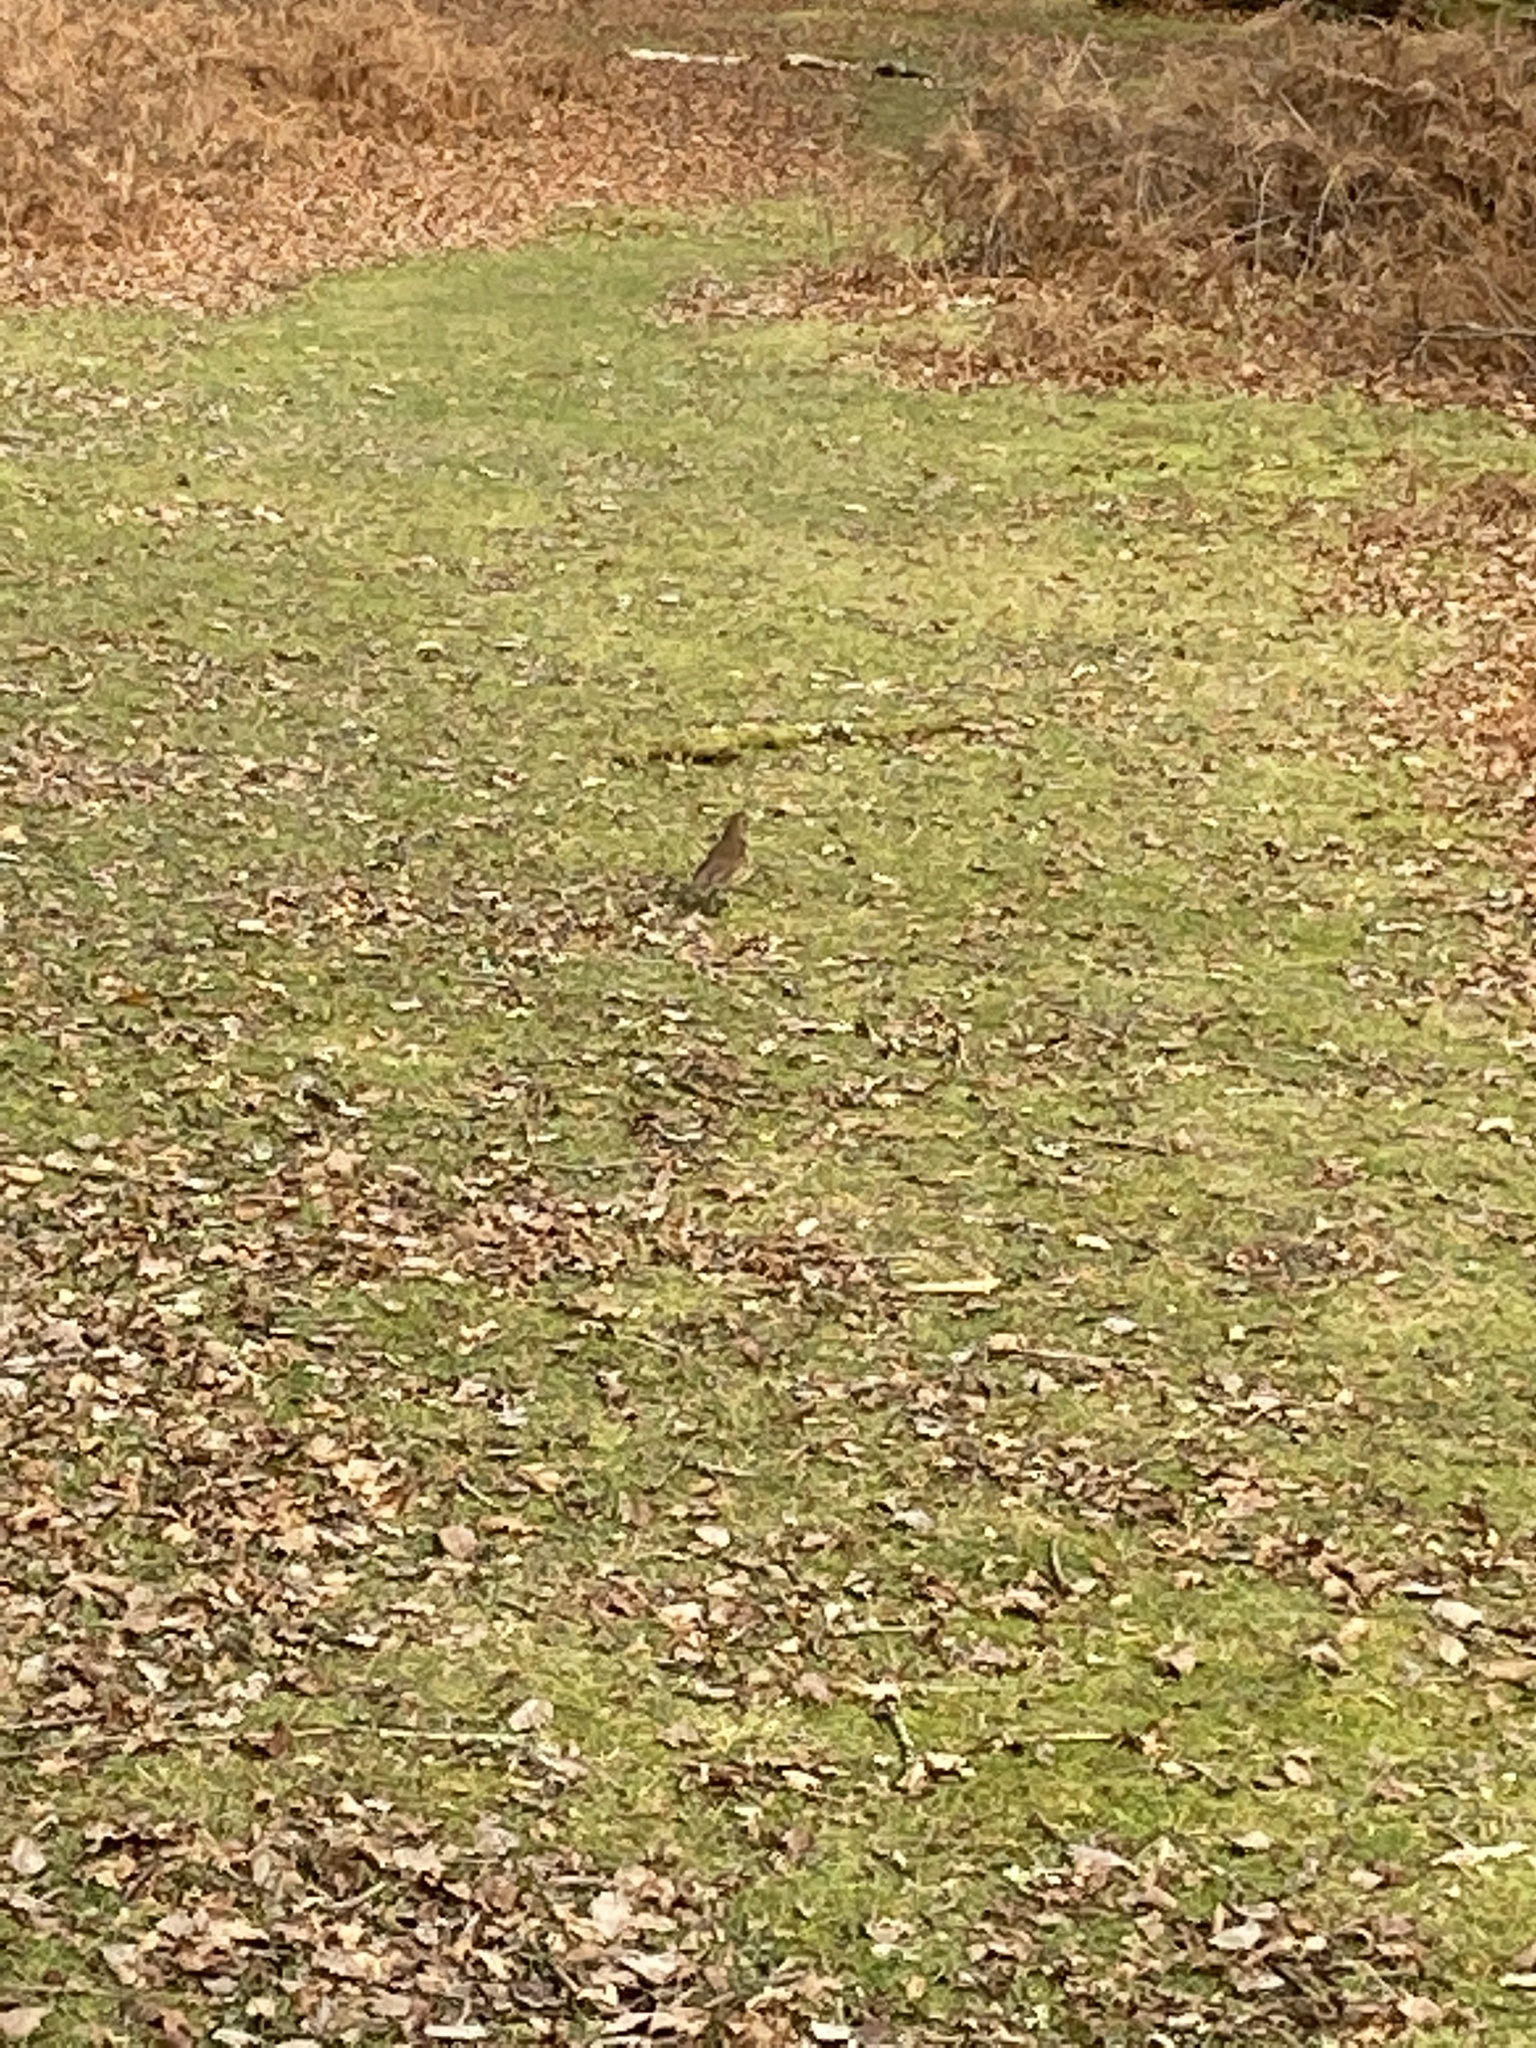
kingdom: Animalia
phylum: Chordata
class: Aves
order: Passeriformes
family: Turdidae
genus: Turdus
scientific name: Turdus philomelos
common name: Song thrush
